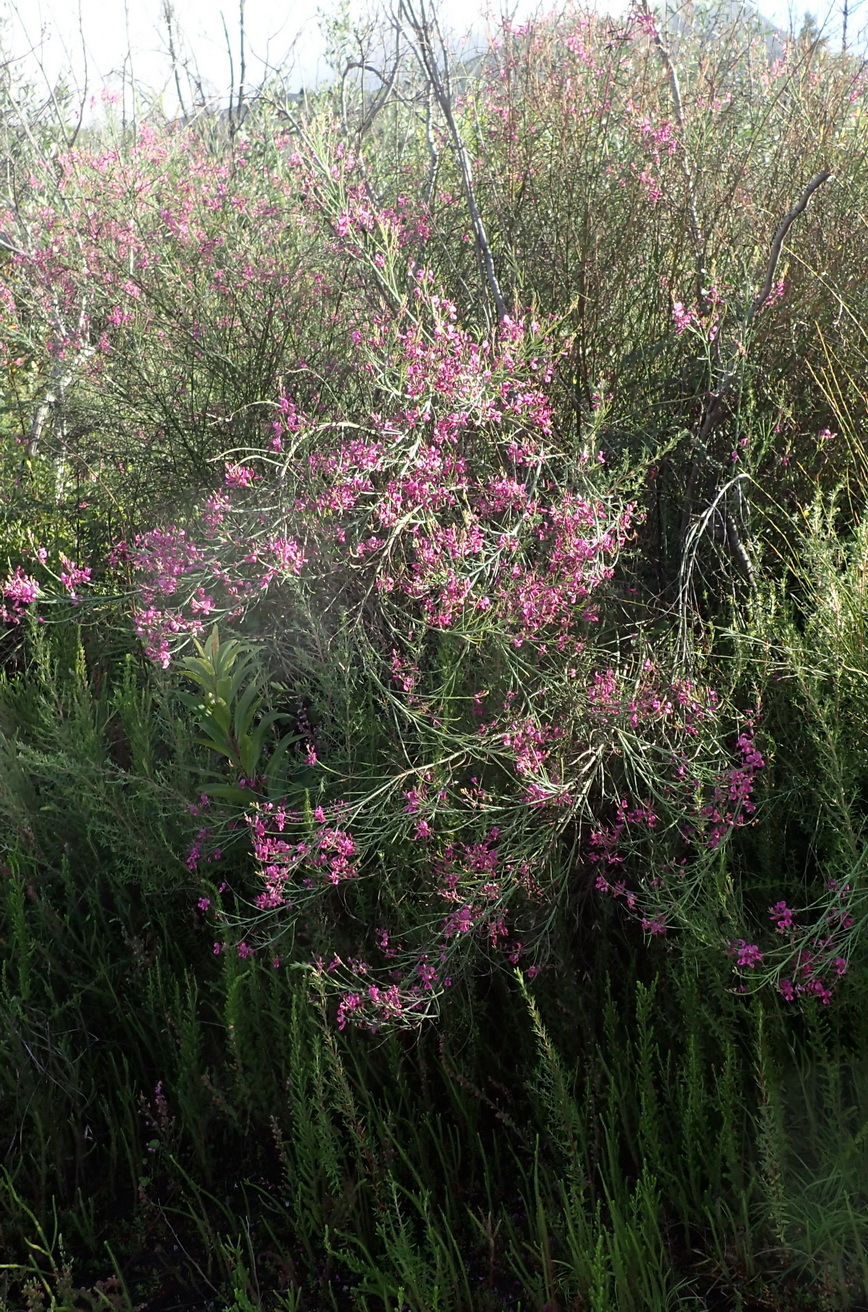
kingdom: Plantae
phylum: Tracheophyta
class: Magnoliopsida
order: Ericales
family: Ericaceae
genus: Erica
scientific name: Erica gracilis
